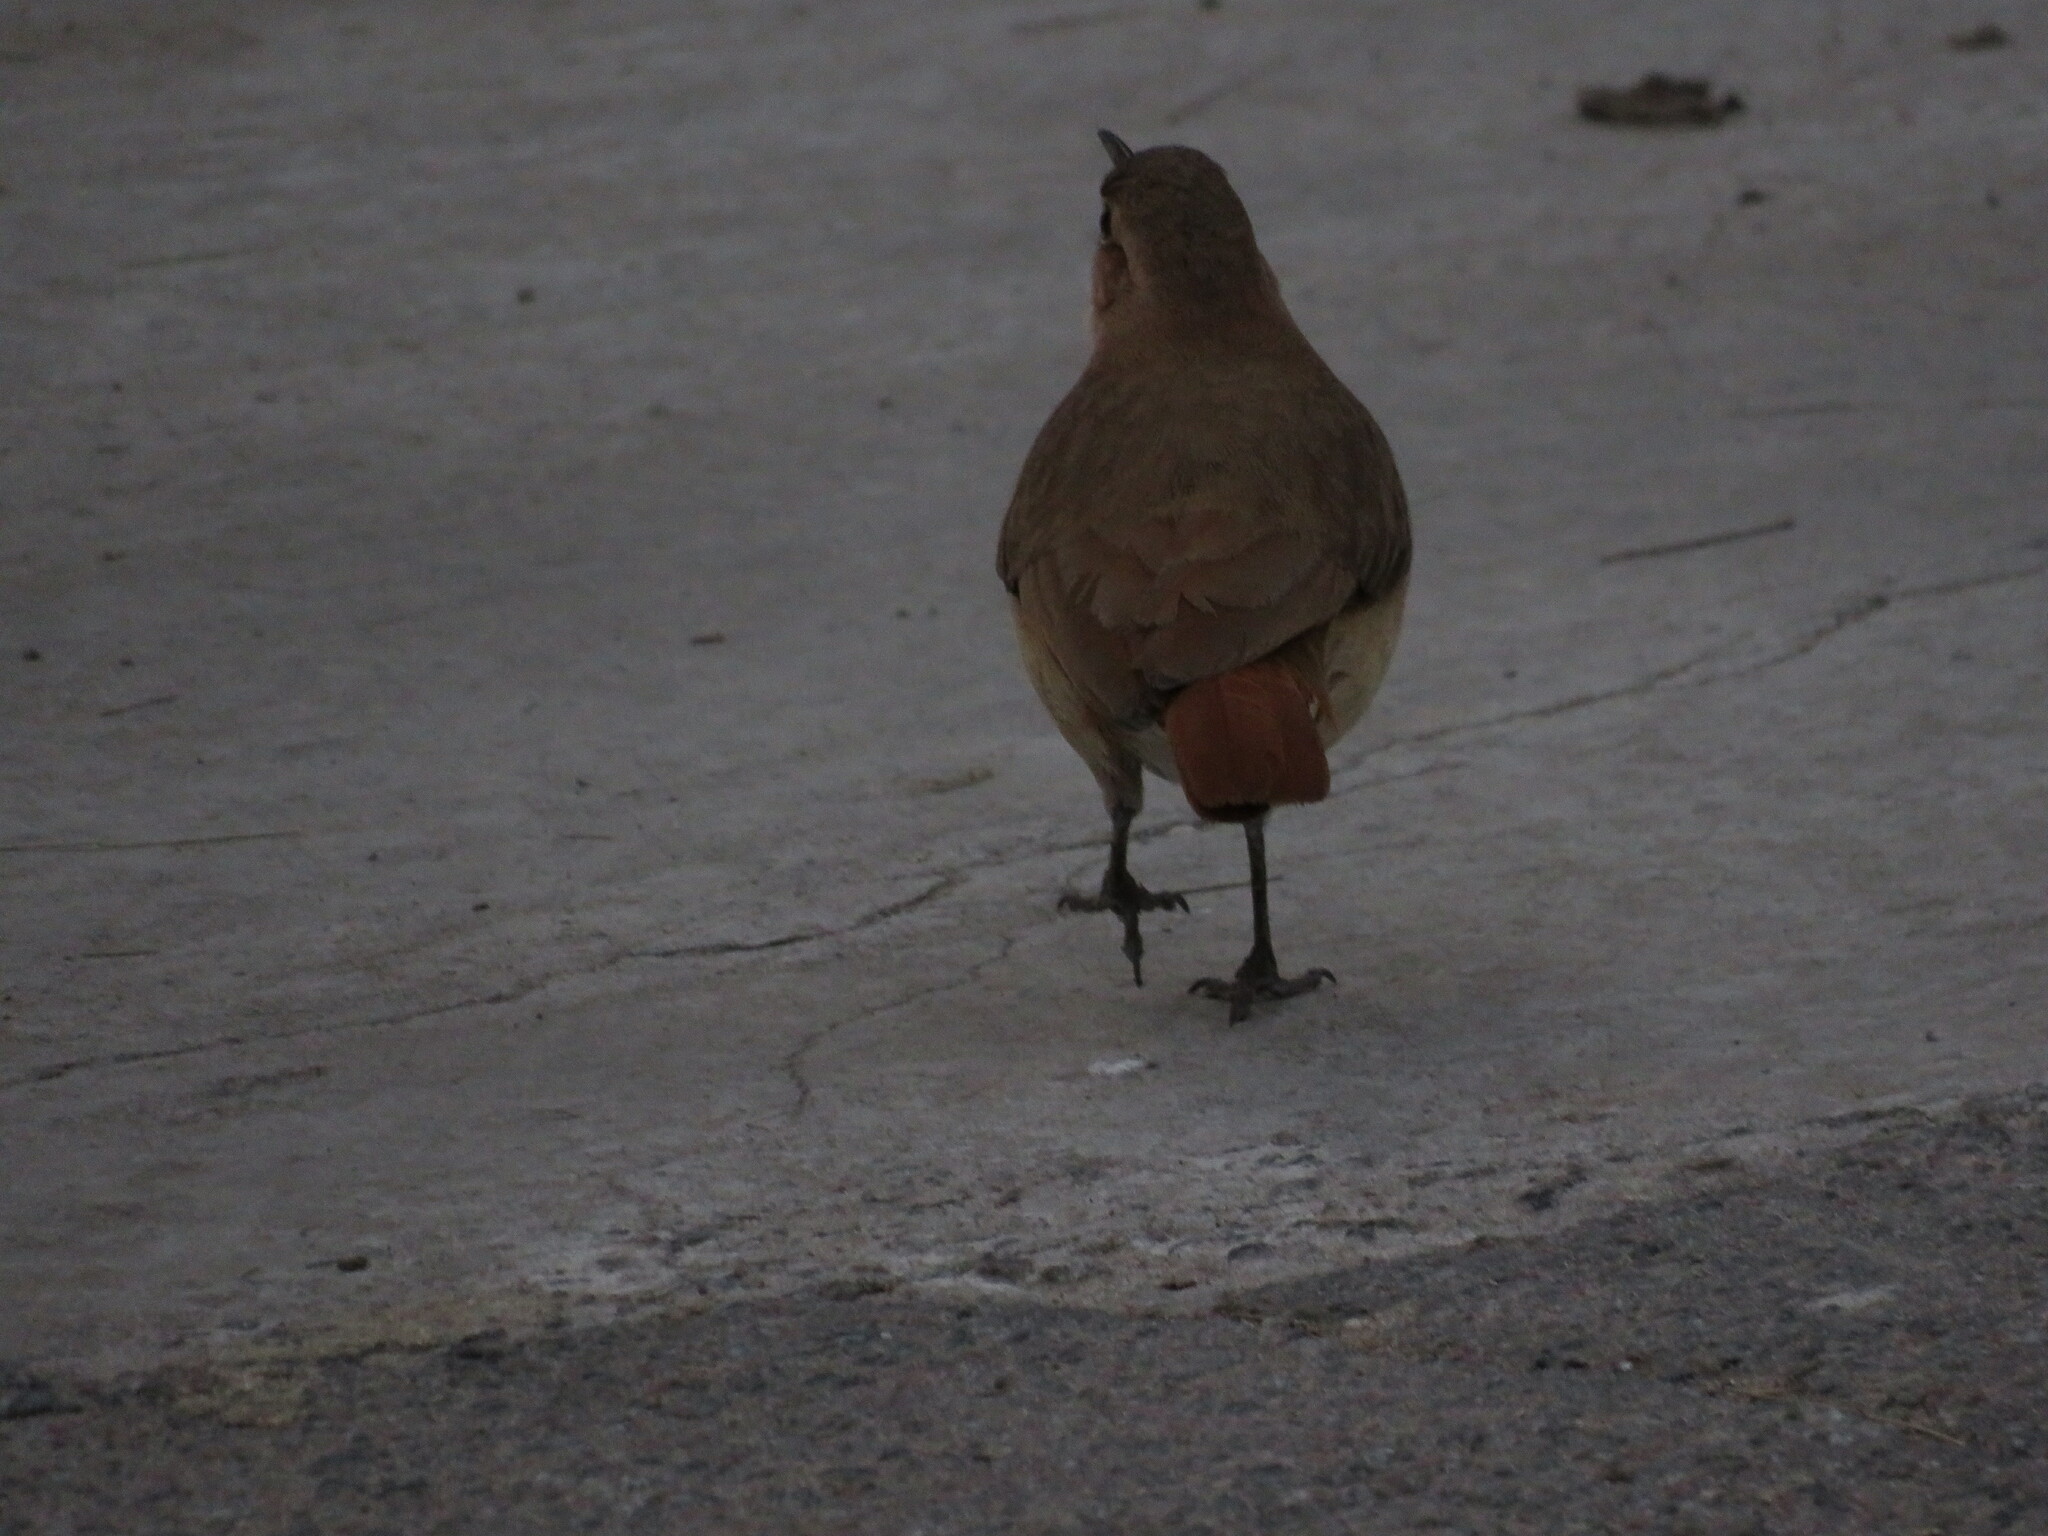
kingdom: Animalia
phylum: Chordata
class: Aves
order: Passeriformes
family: Furnariidae
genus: Furnarius
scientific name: Furnarius rufus
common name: Rufous hornero
